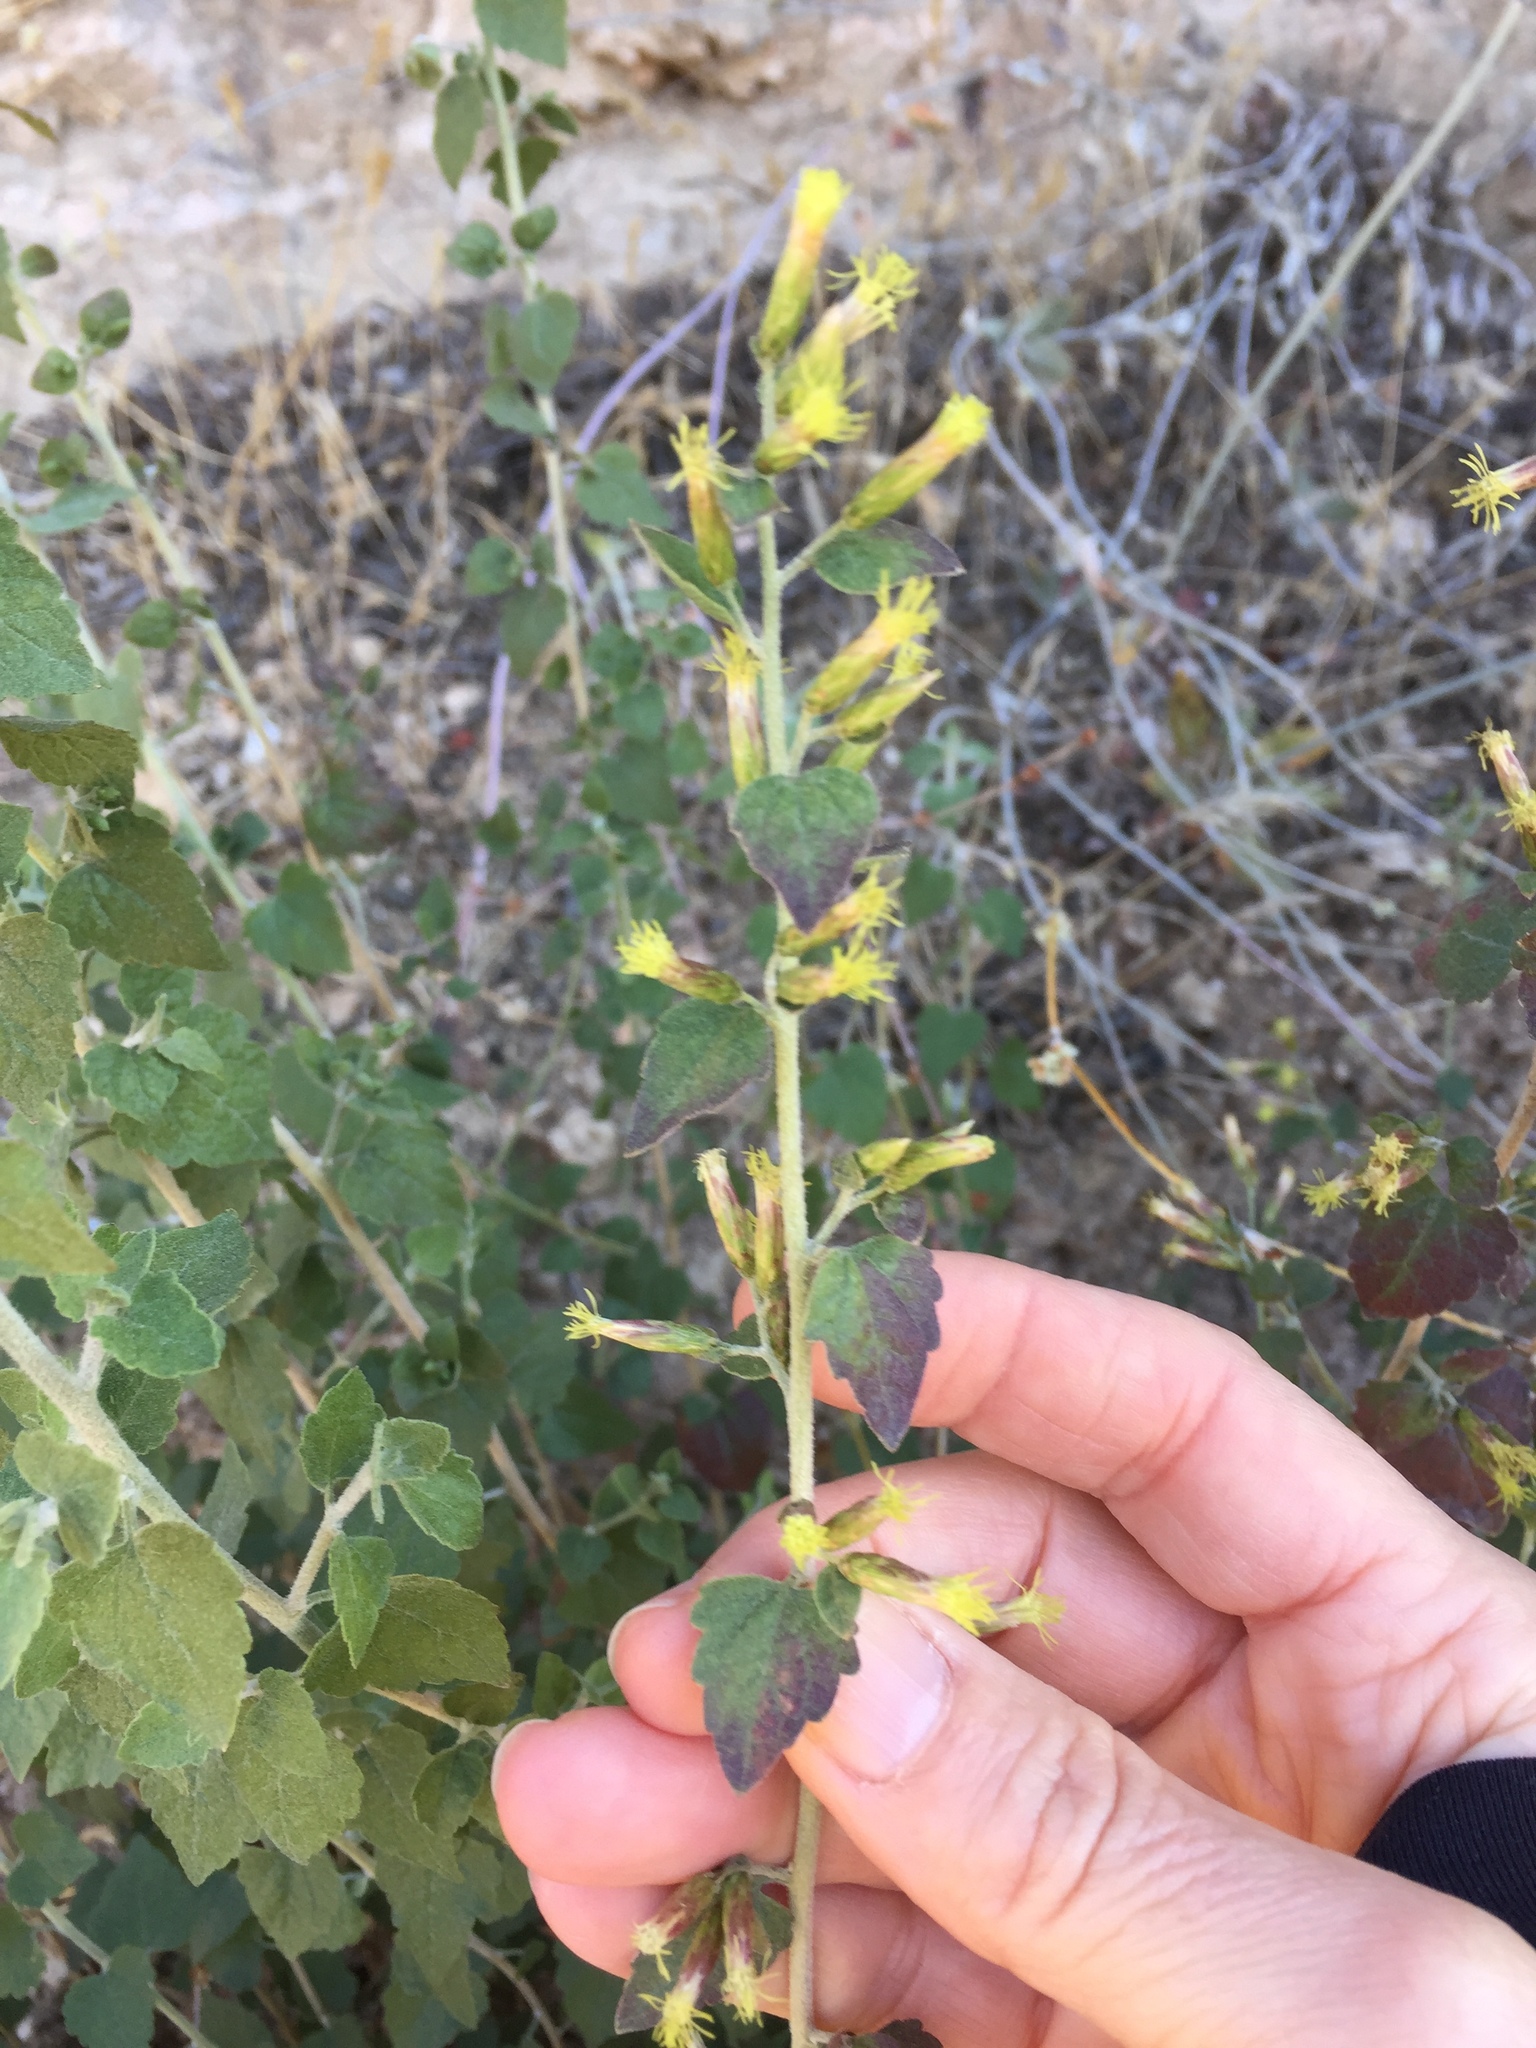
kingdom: Plantae
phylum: Tracheophyta
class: Magnoliopsida
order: Asterales
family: Asteraceae
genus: Brickellia
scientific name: Brickellia californica
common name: California brickellbush
